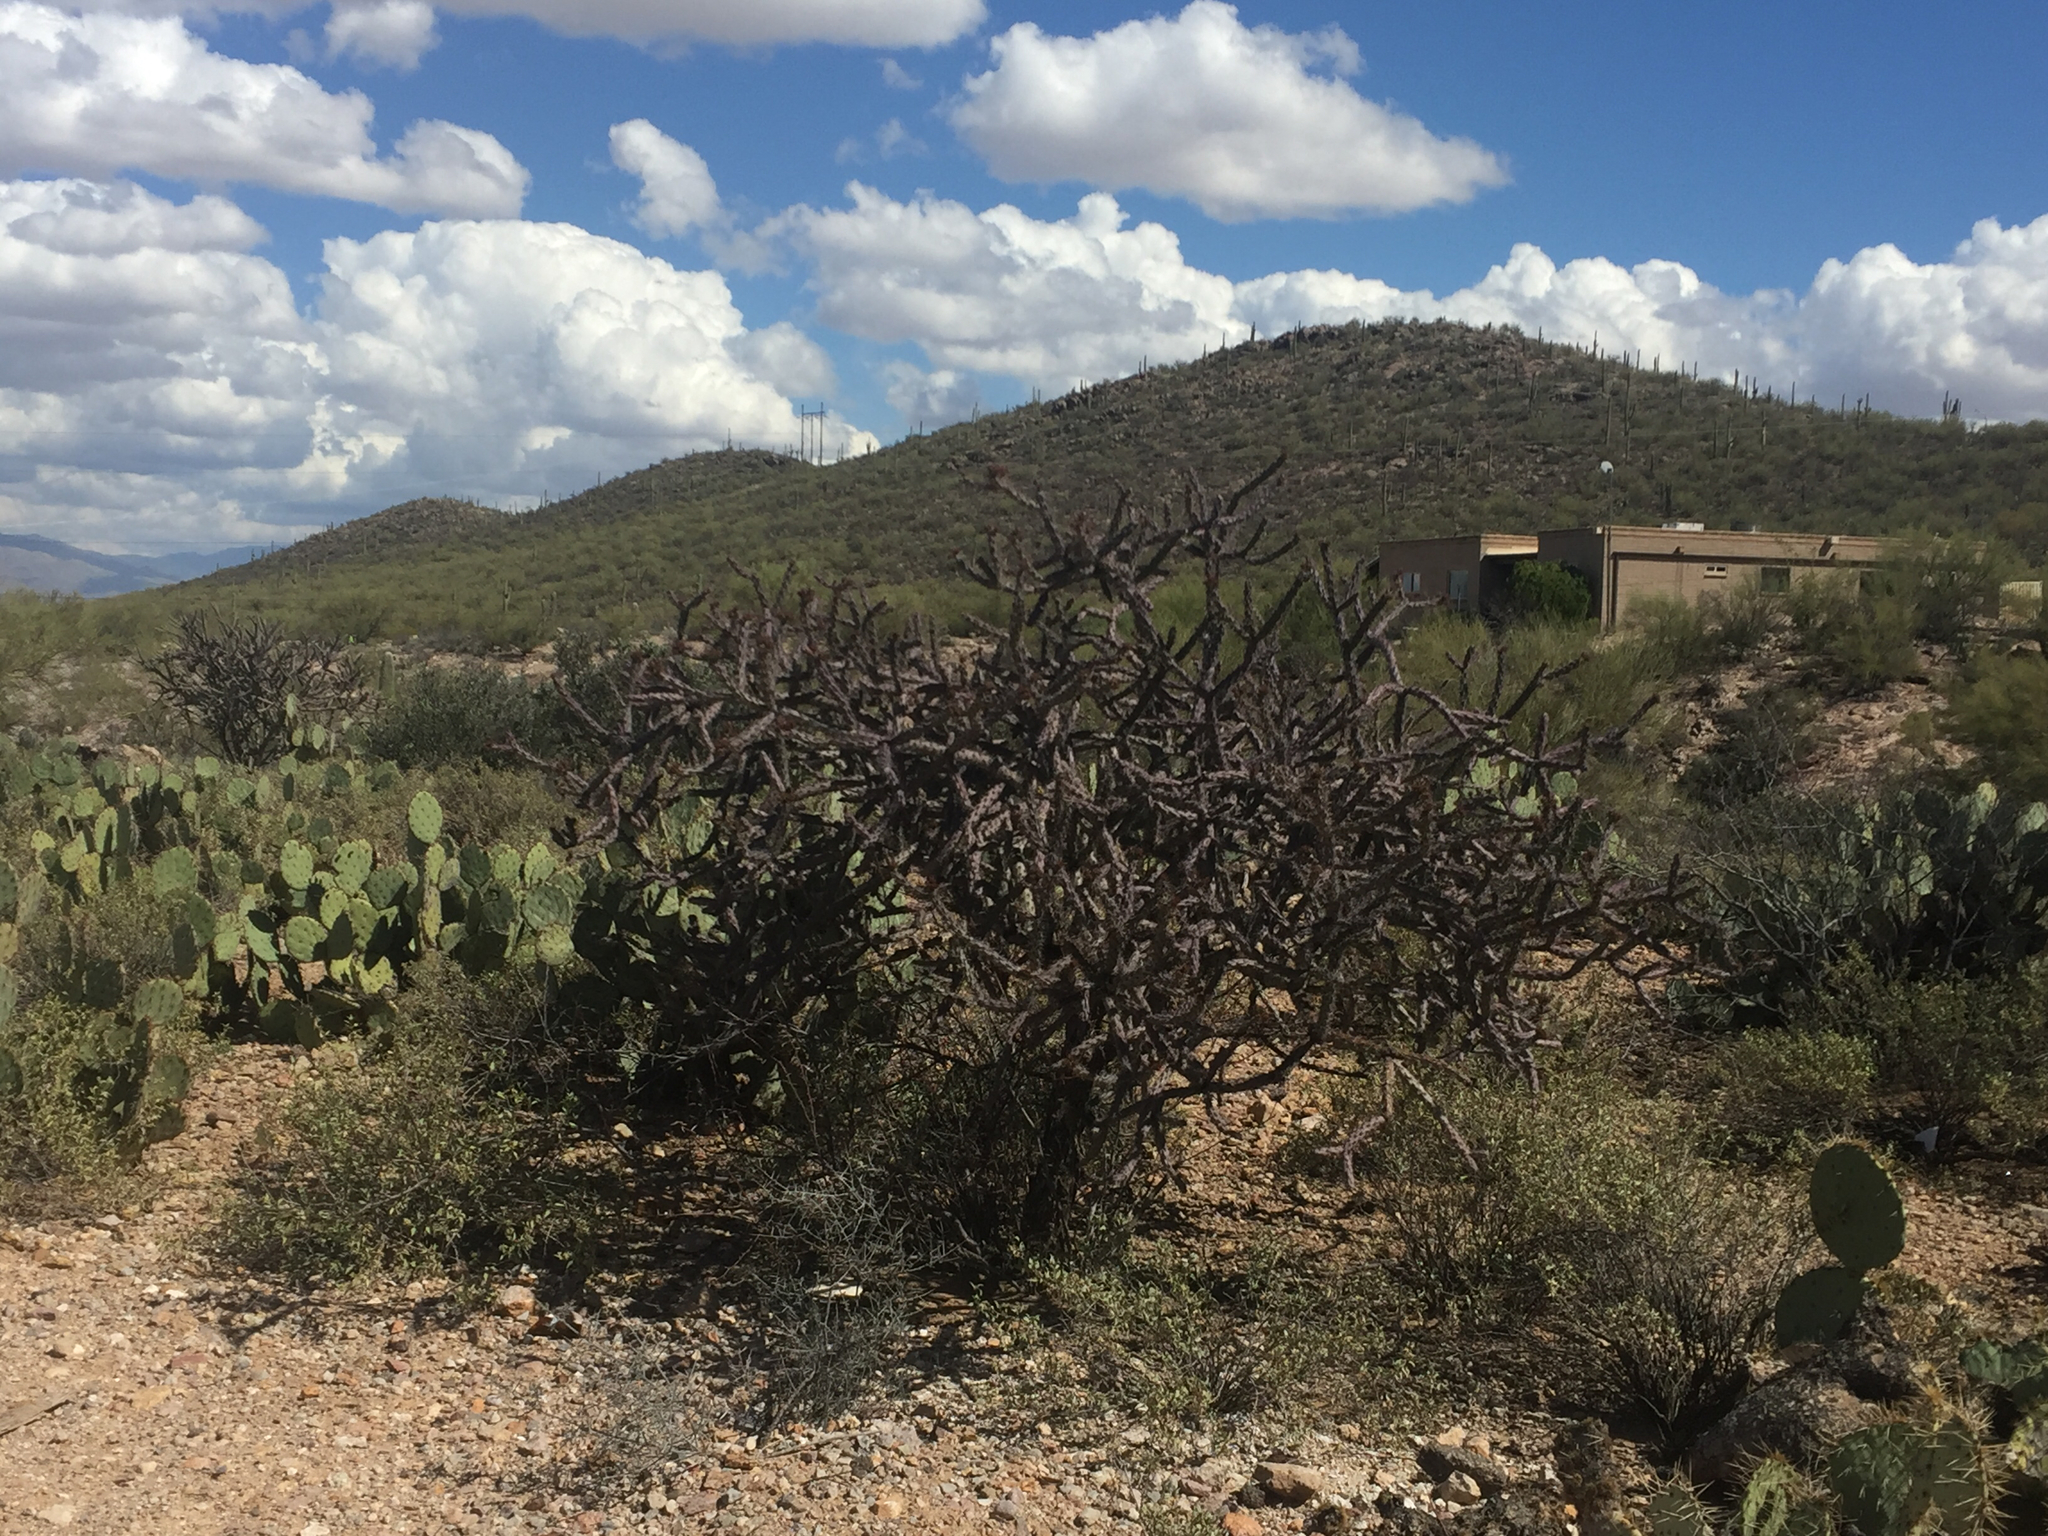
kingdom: Plantae
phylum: Tracheophyta
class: Magnoliopsida
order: Caryophyllales
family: Cactaceae
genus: Cylindropuntia
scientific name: Cylindropuntia thurberi
